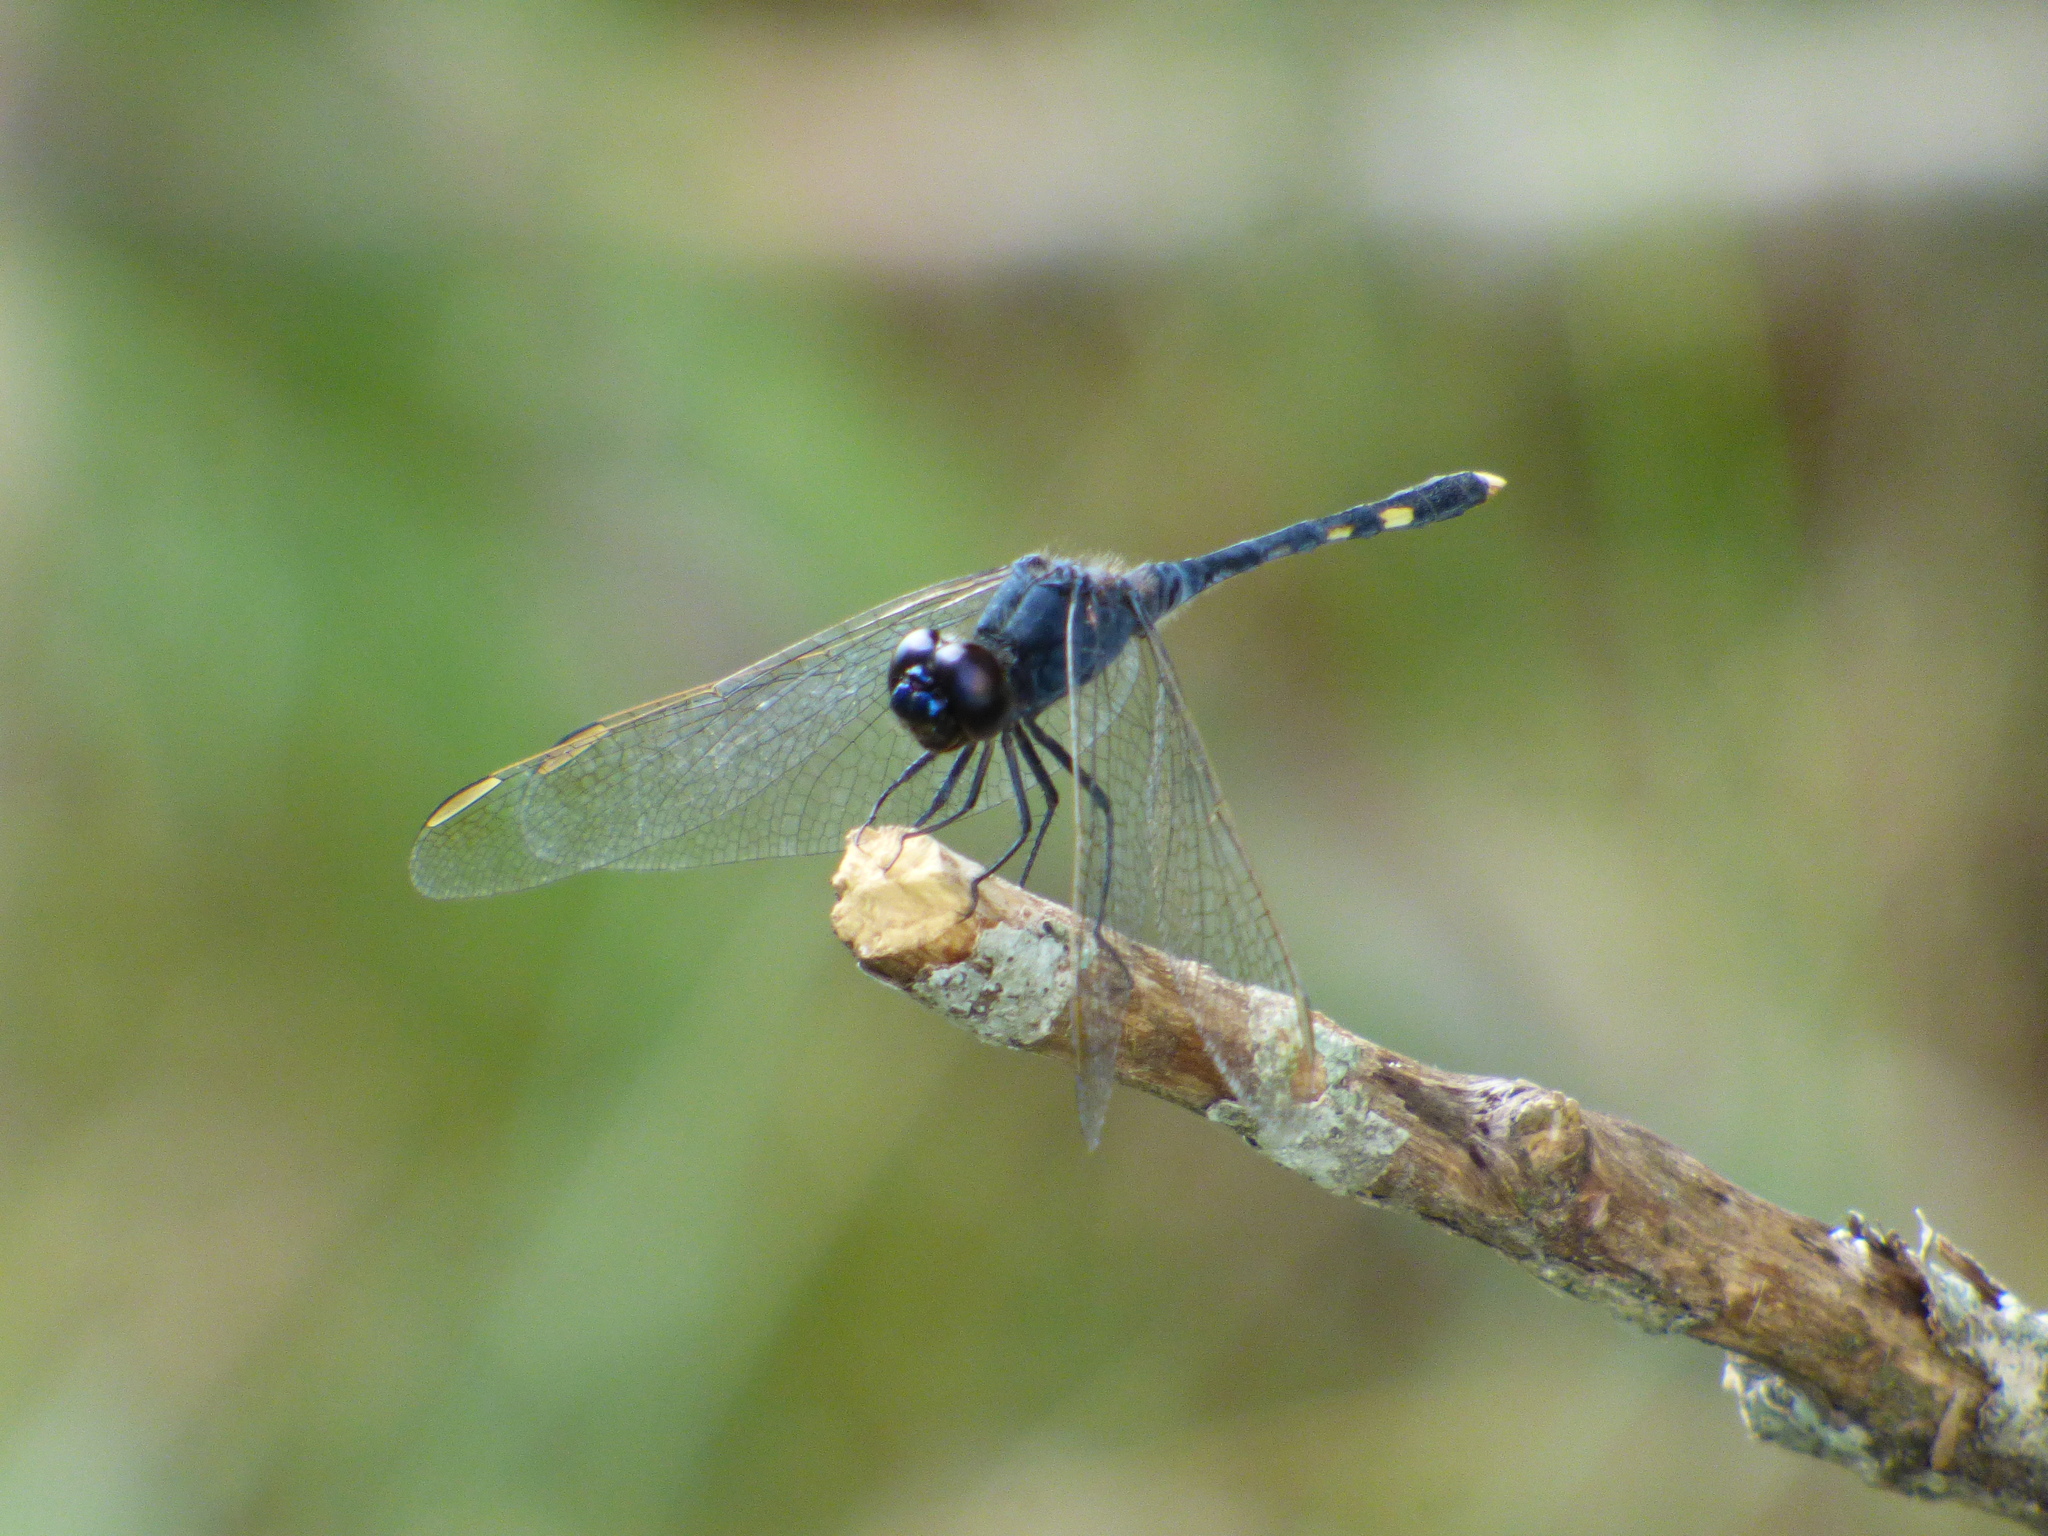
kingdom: Animalia
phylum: Arthropoda
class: Insecta
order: Odonata
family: Libellulidae
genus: Erythrodiplax
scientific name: Erythrodiplax nigricans
